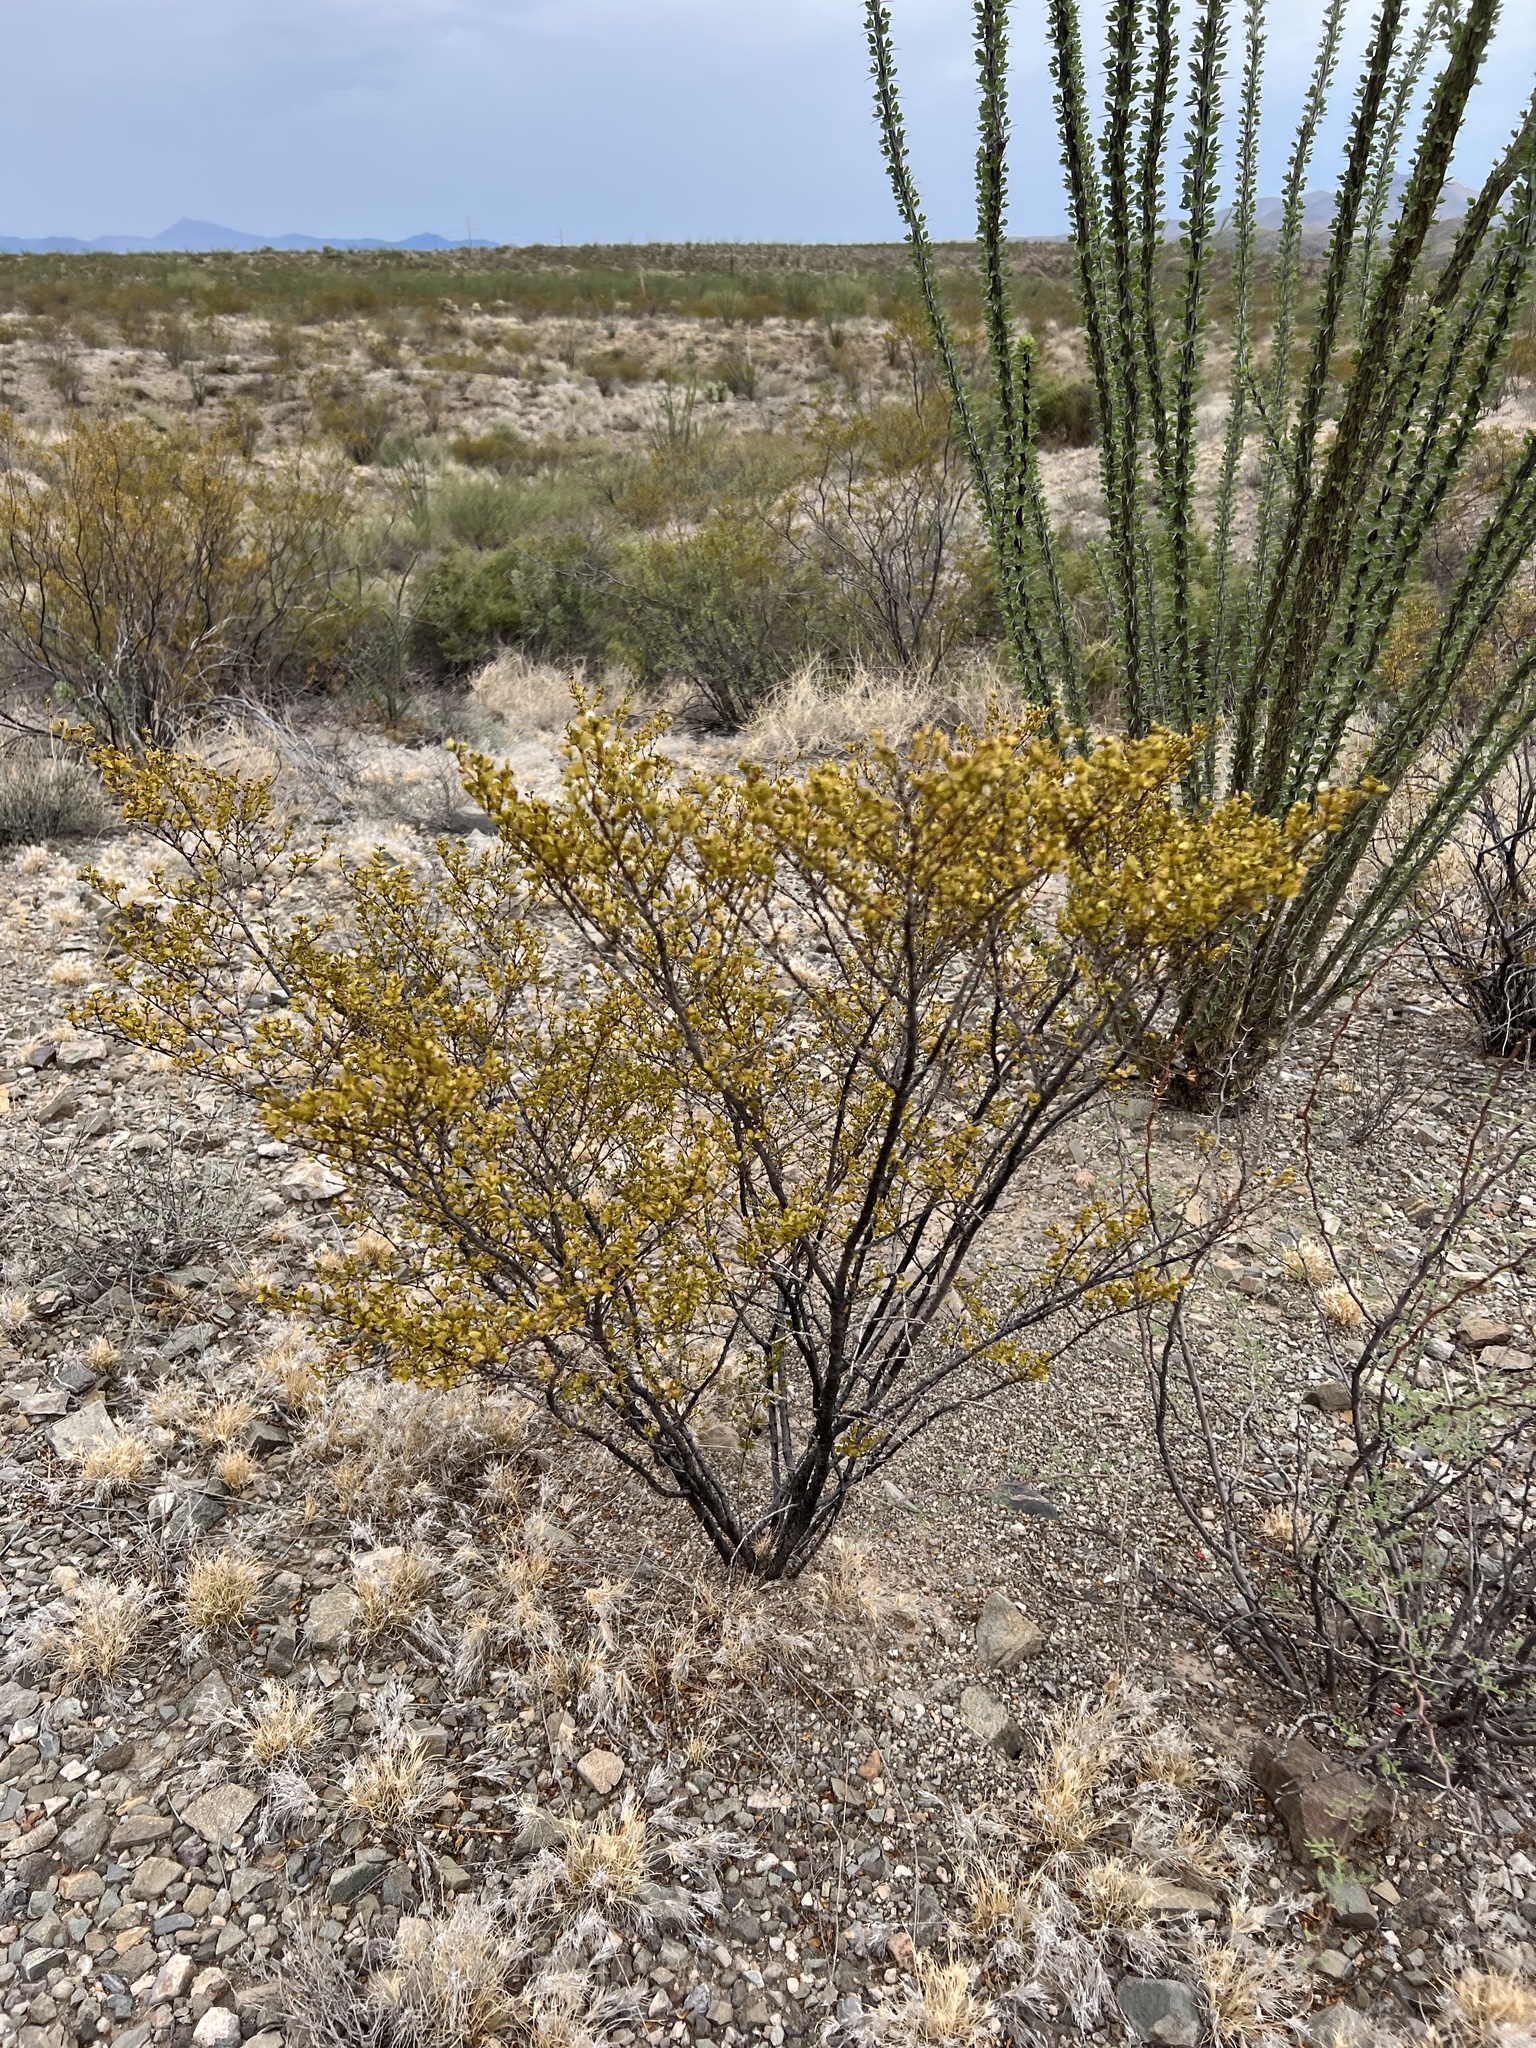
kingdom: Plantae
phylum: Tracheophyta
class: Magnoliopsida
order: Zygophyllales
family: Zygophyllaceae
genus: Larrea
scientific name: Larrea tridentata
